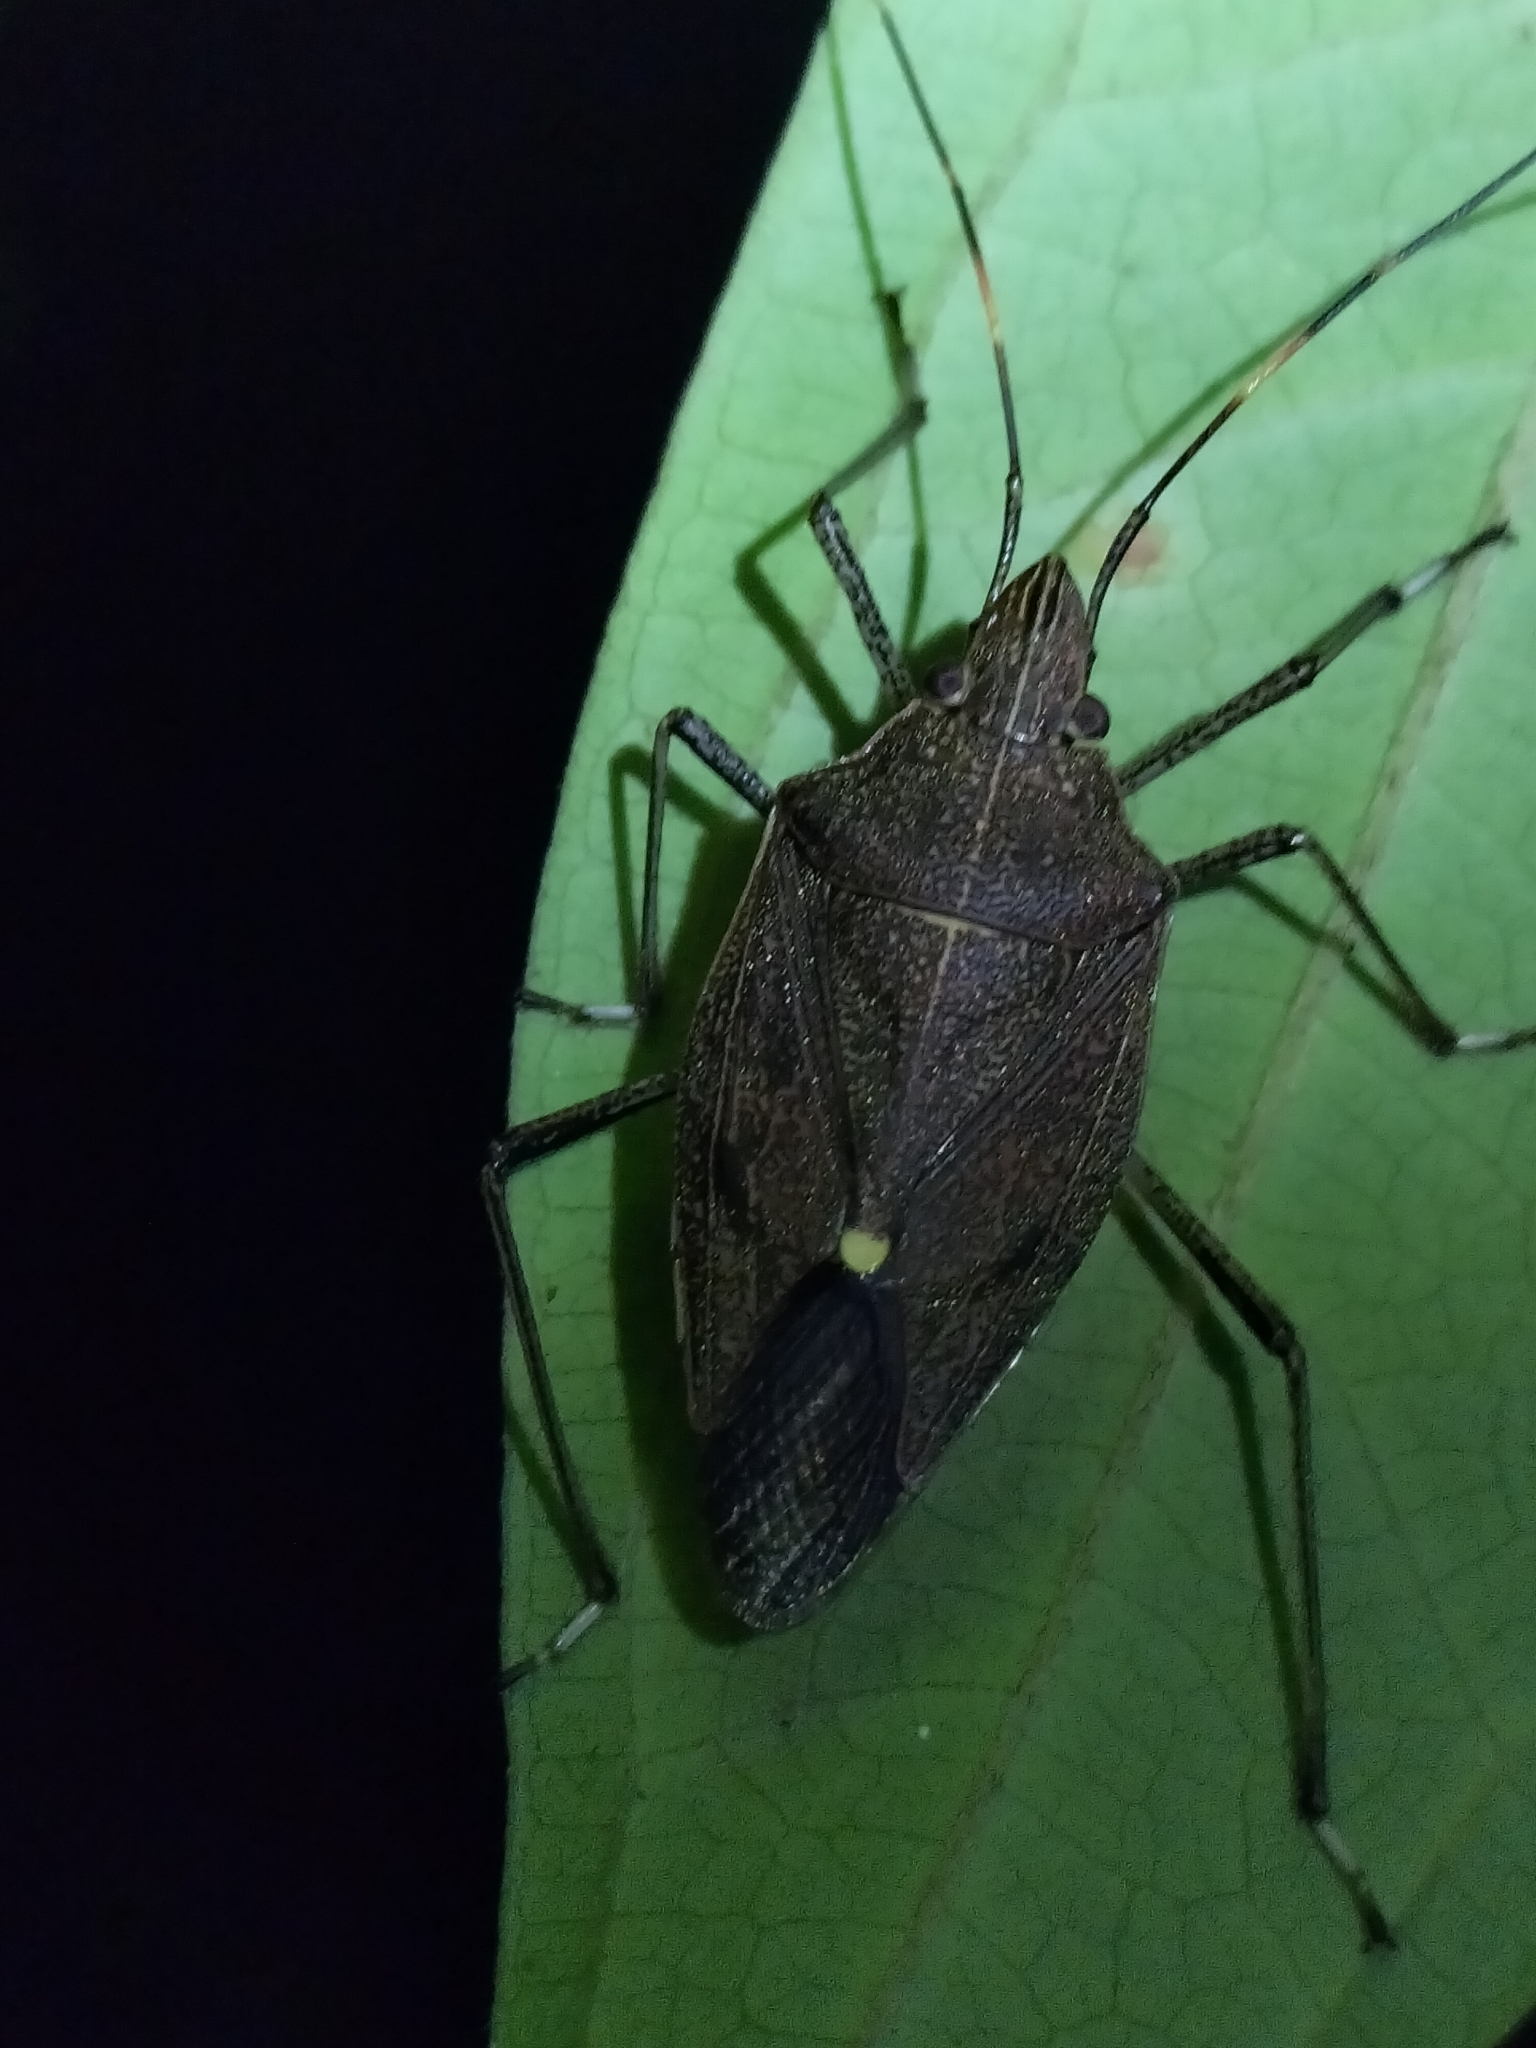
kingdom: Animalia
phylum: Arthropoda
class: Insecta
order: Hemiptera
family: Pentatomidae
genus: Poecilometis
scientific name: Poecilometis
